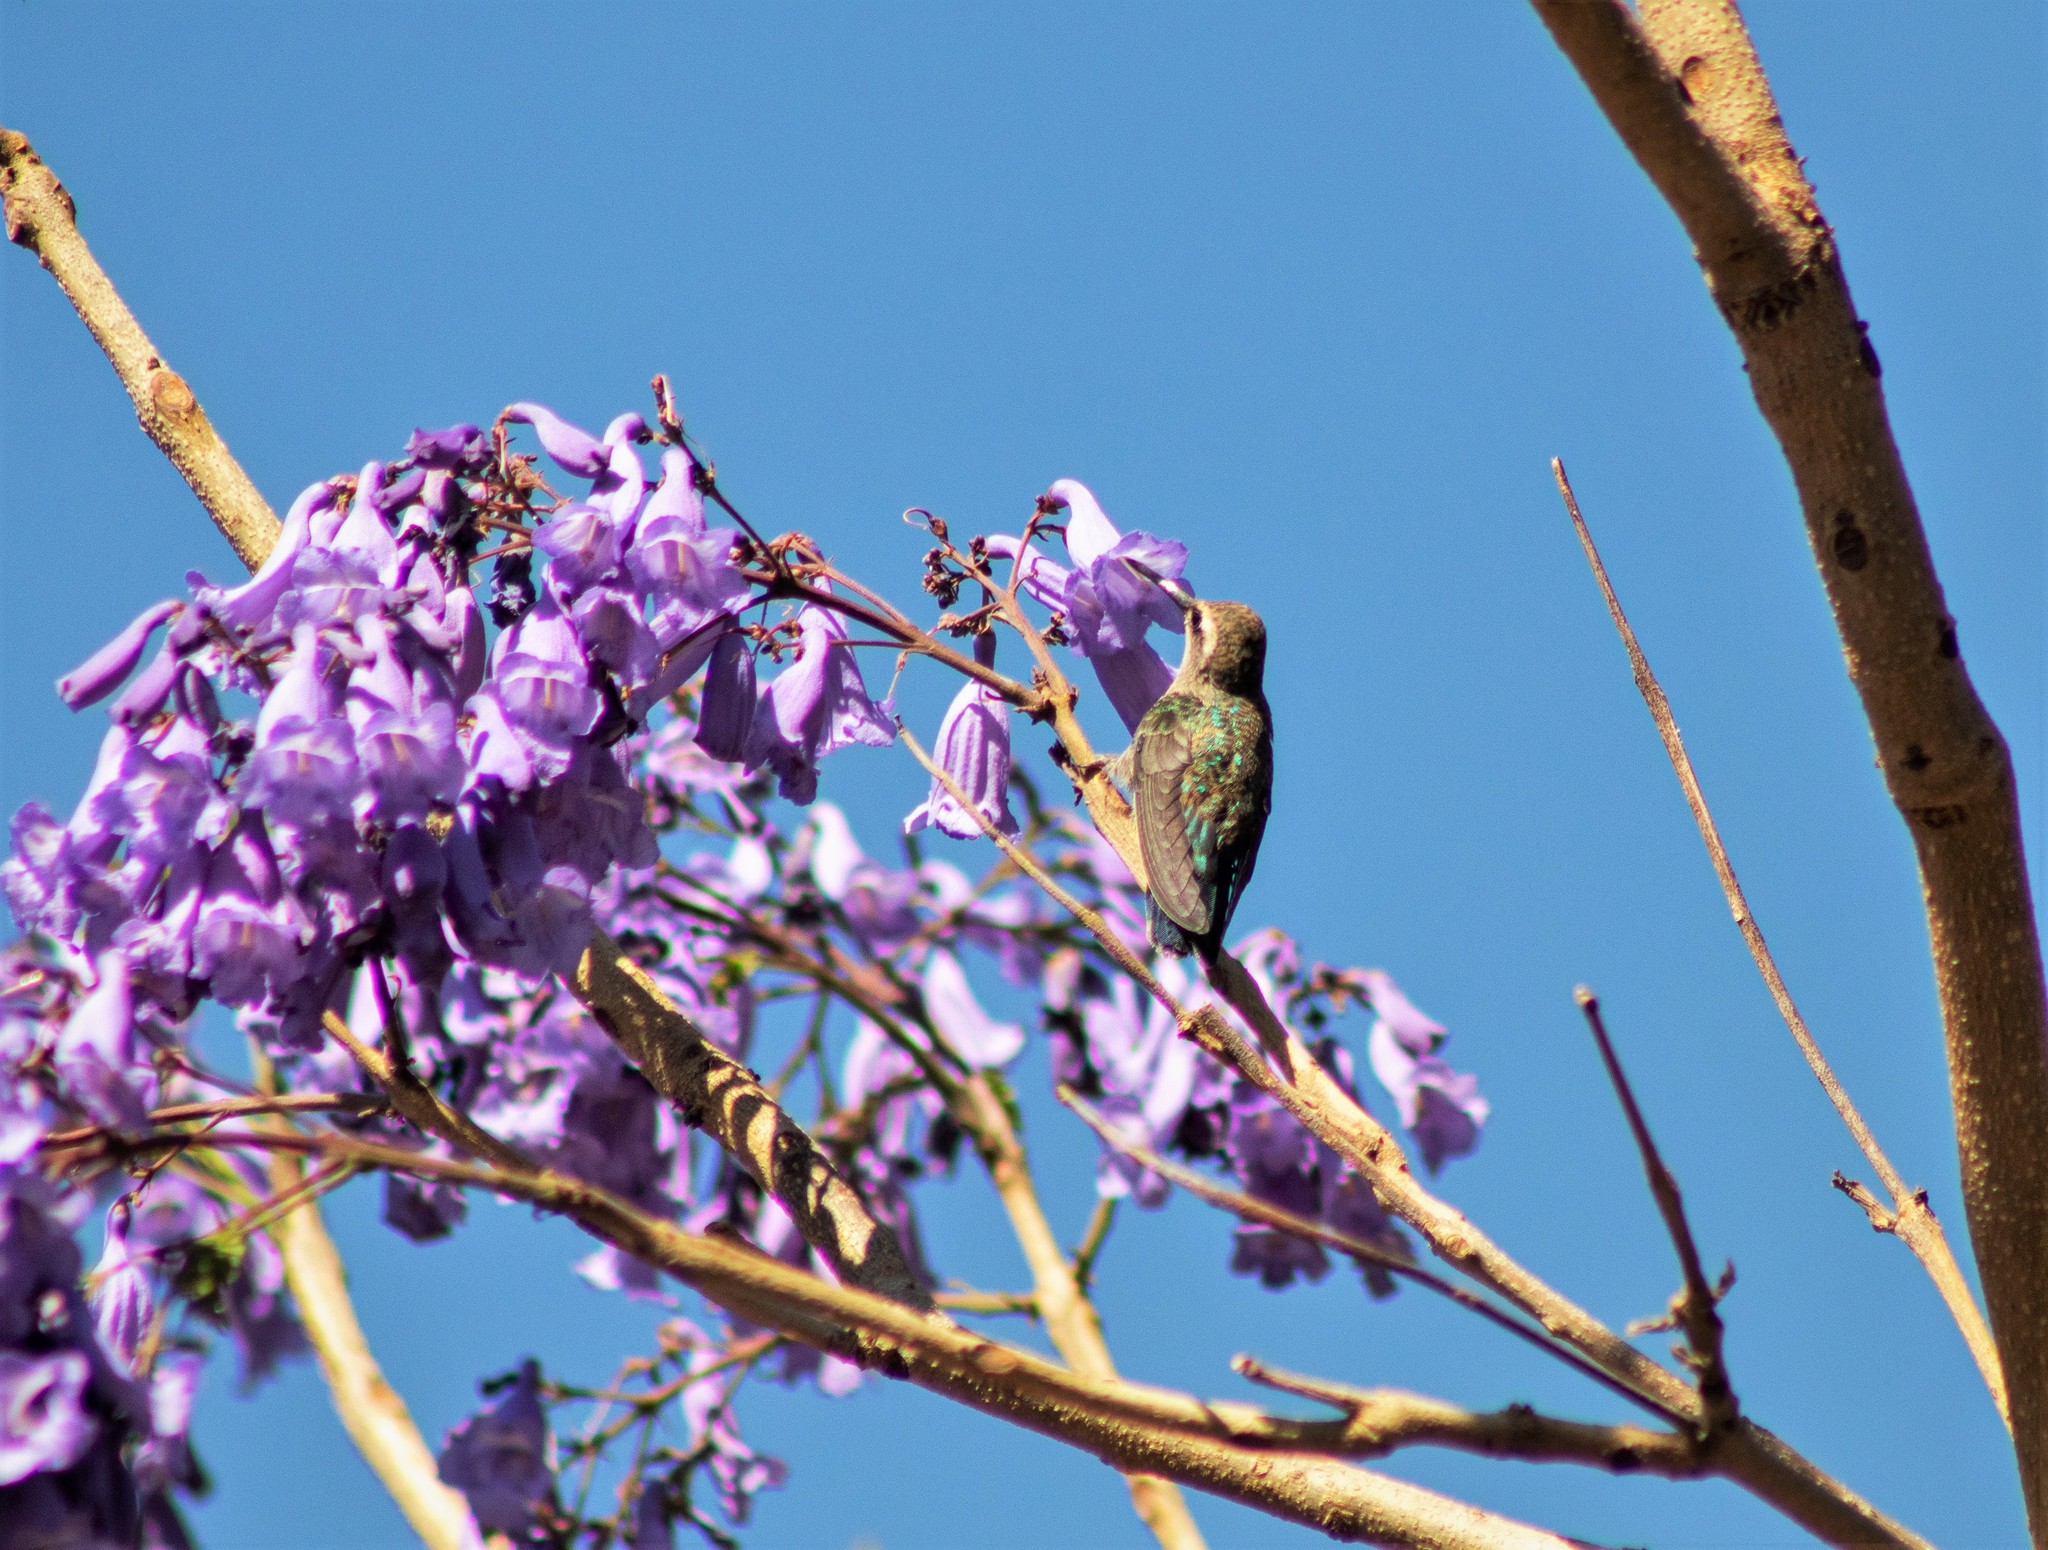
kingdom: Animalia
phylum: Chordata
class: Aves
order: Apodiformes
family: Trochilidae
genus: Cynanthus
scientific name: Cynanthus latirostris
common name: Broad-billed hummingbird
